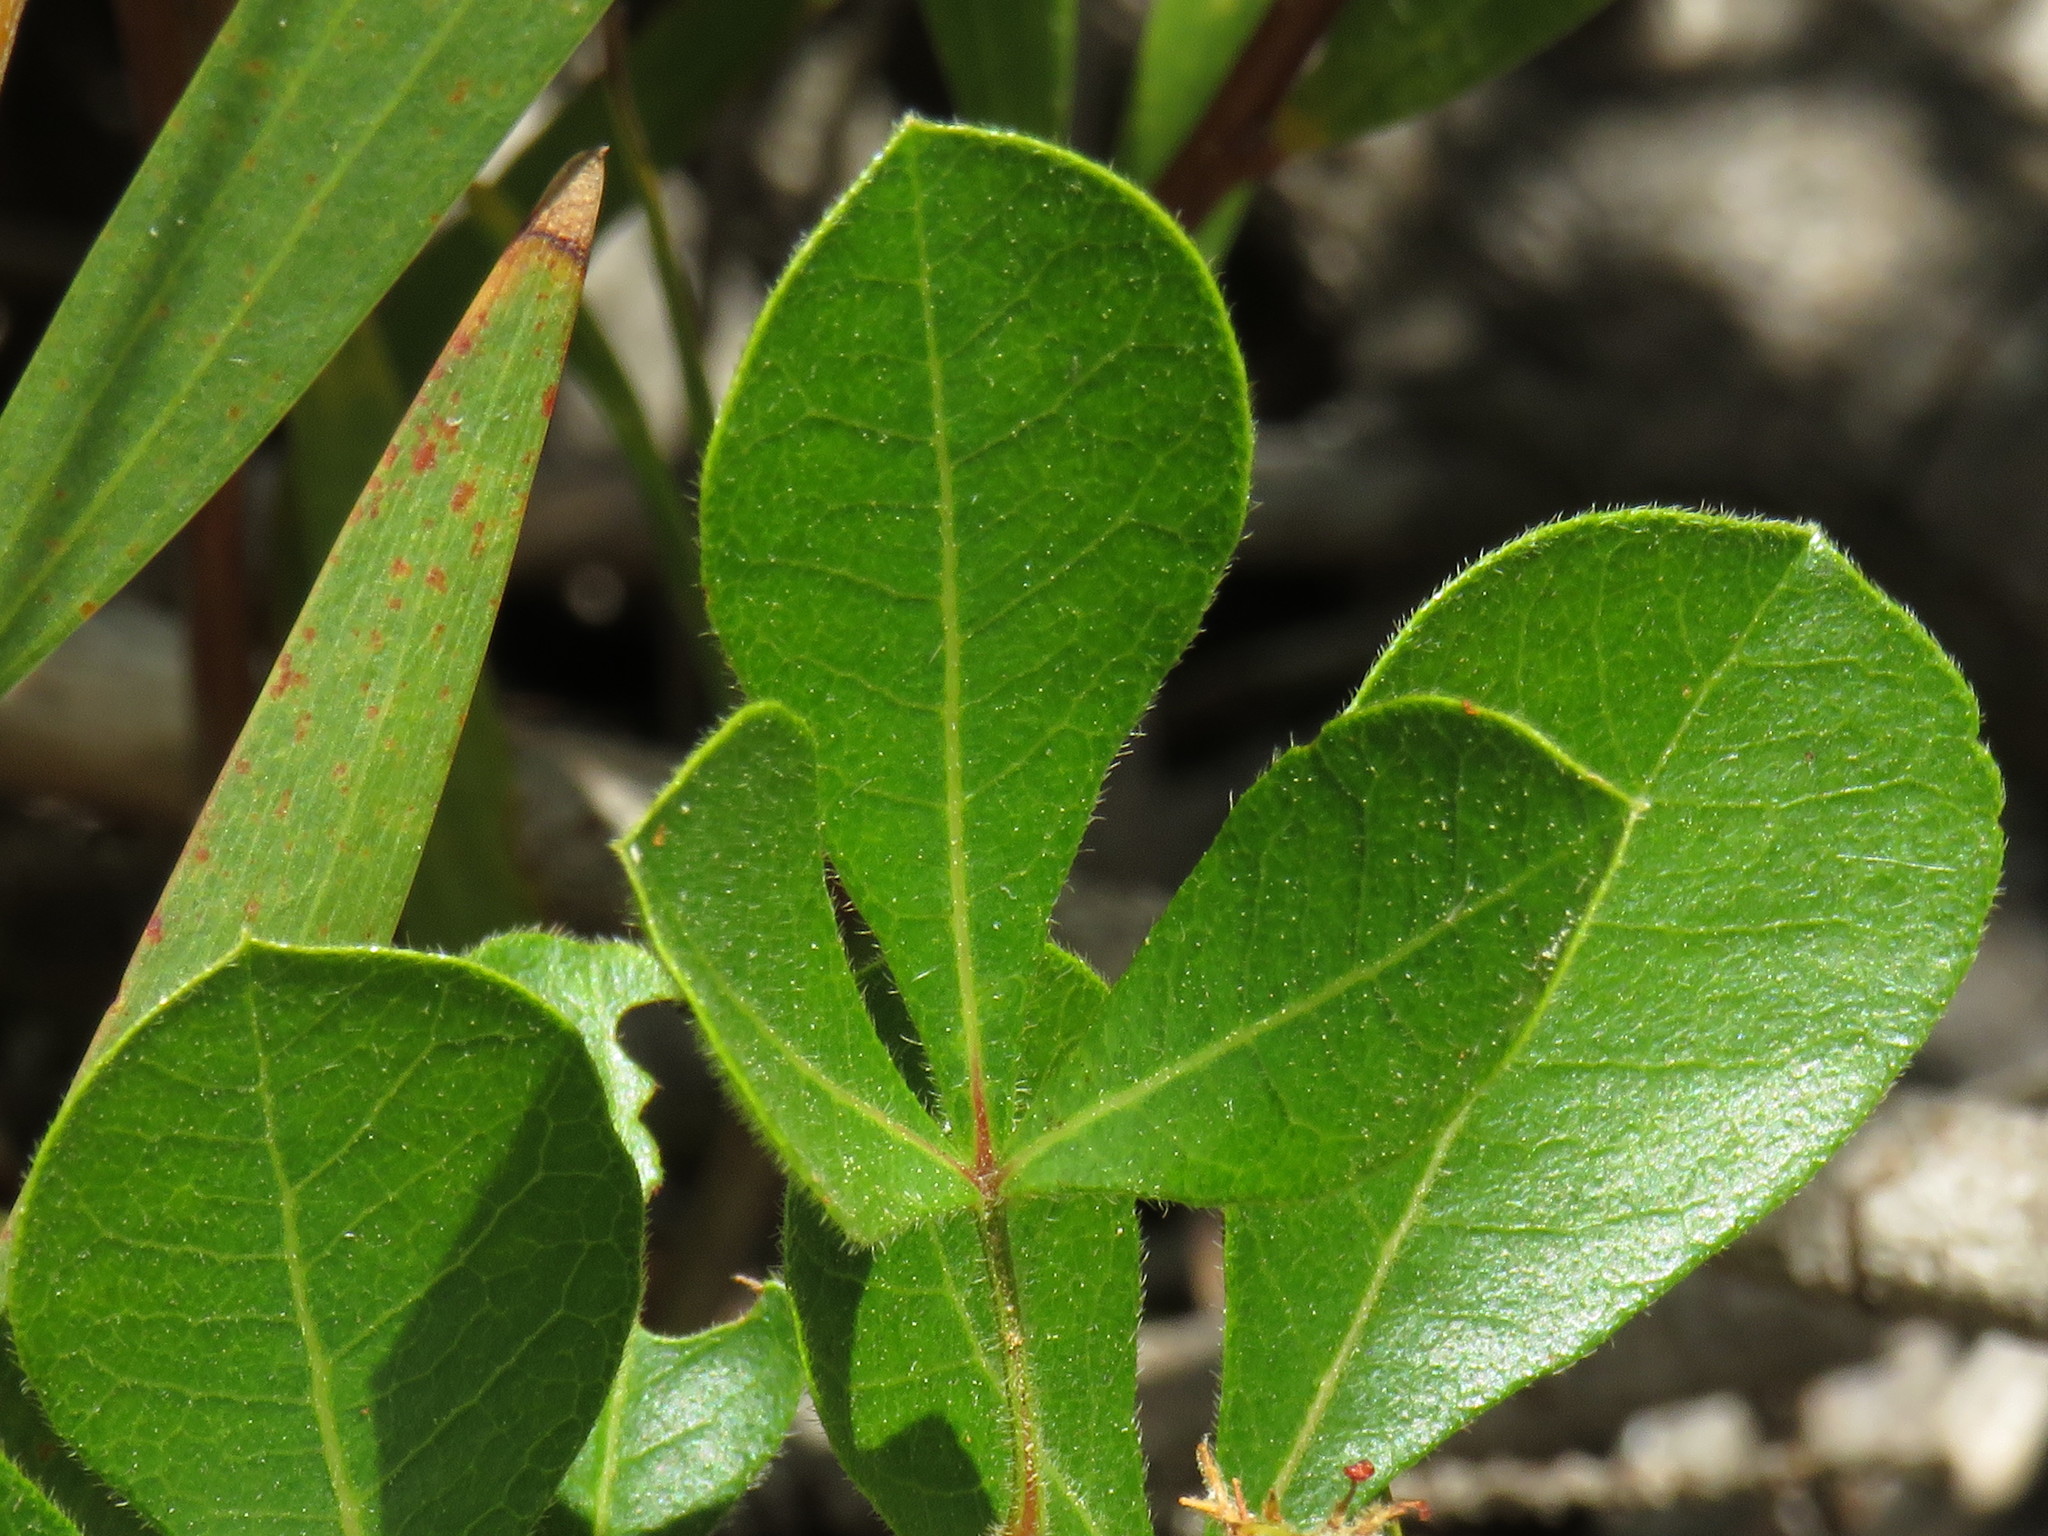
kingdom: Plantae
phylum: Tracheophyta
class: Magnoliopsida
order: Sapindales
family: Anacardiaceae
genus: Searsia
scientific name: Searsia laevigata
